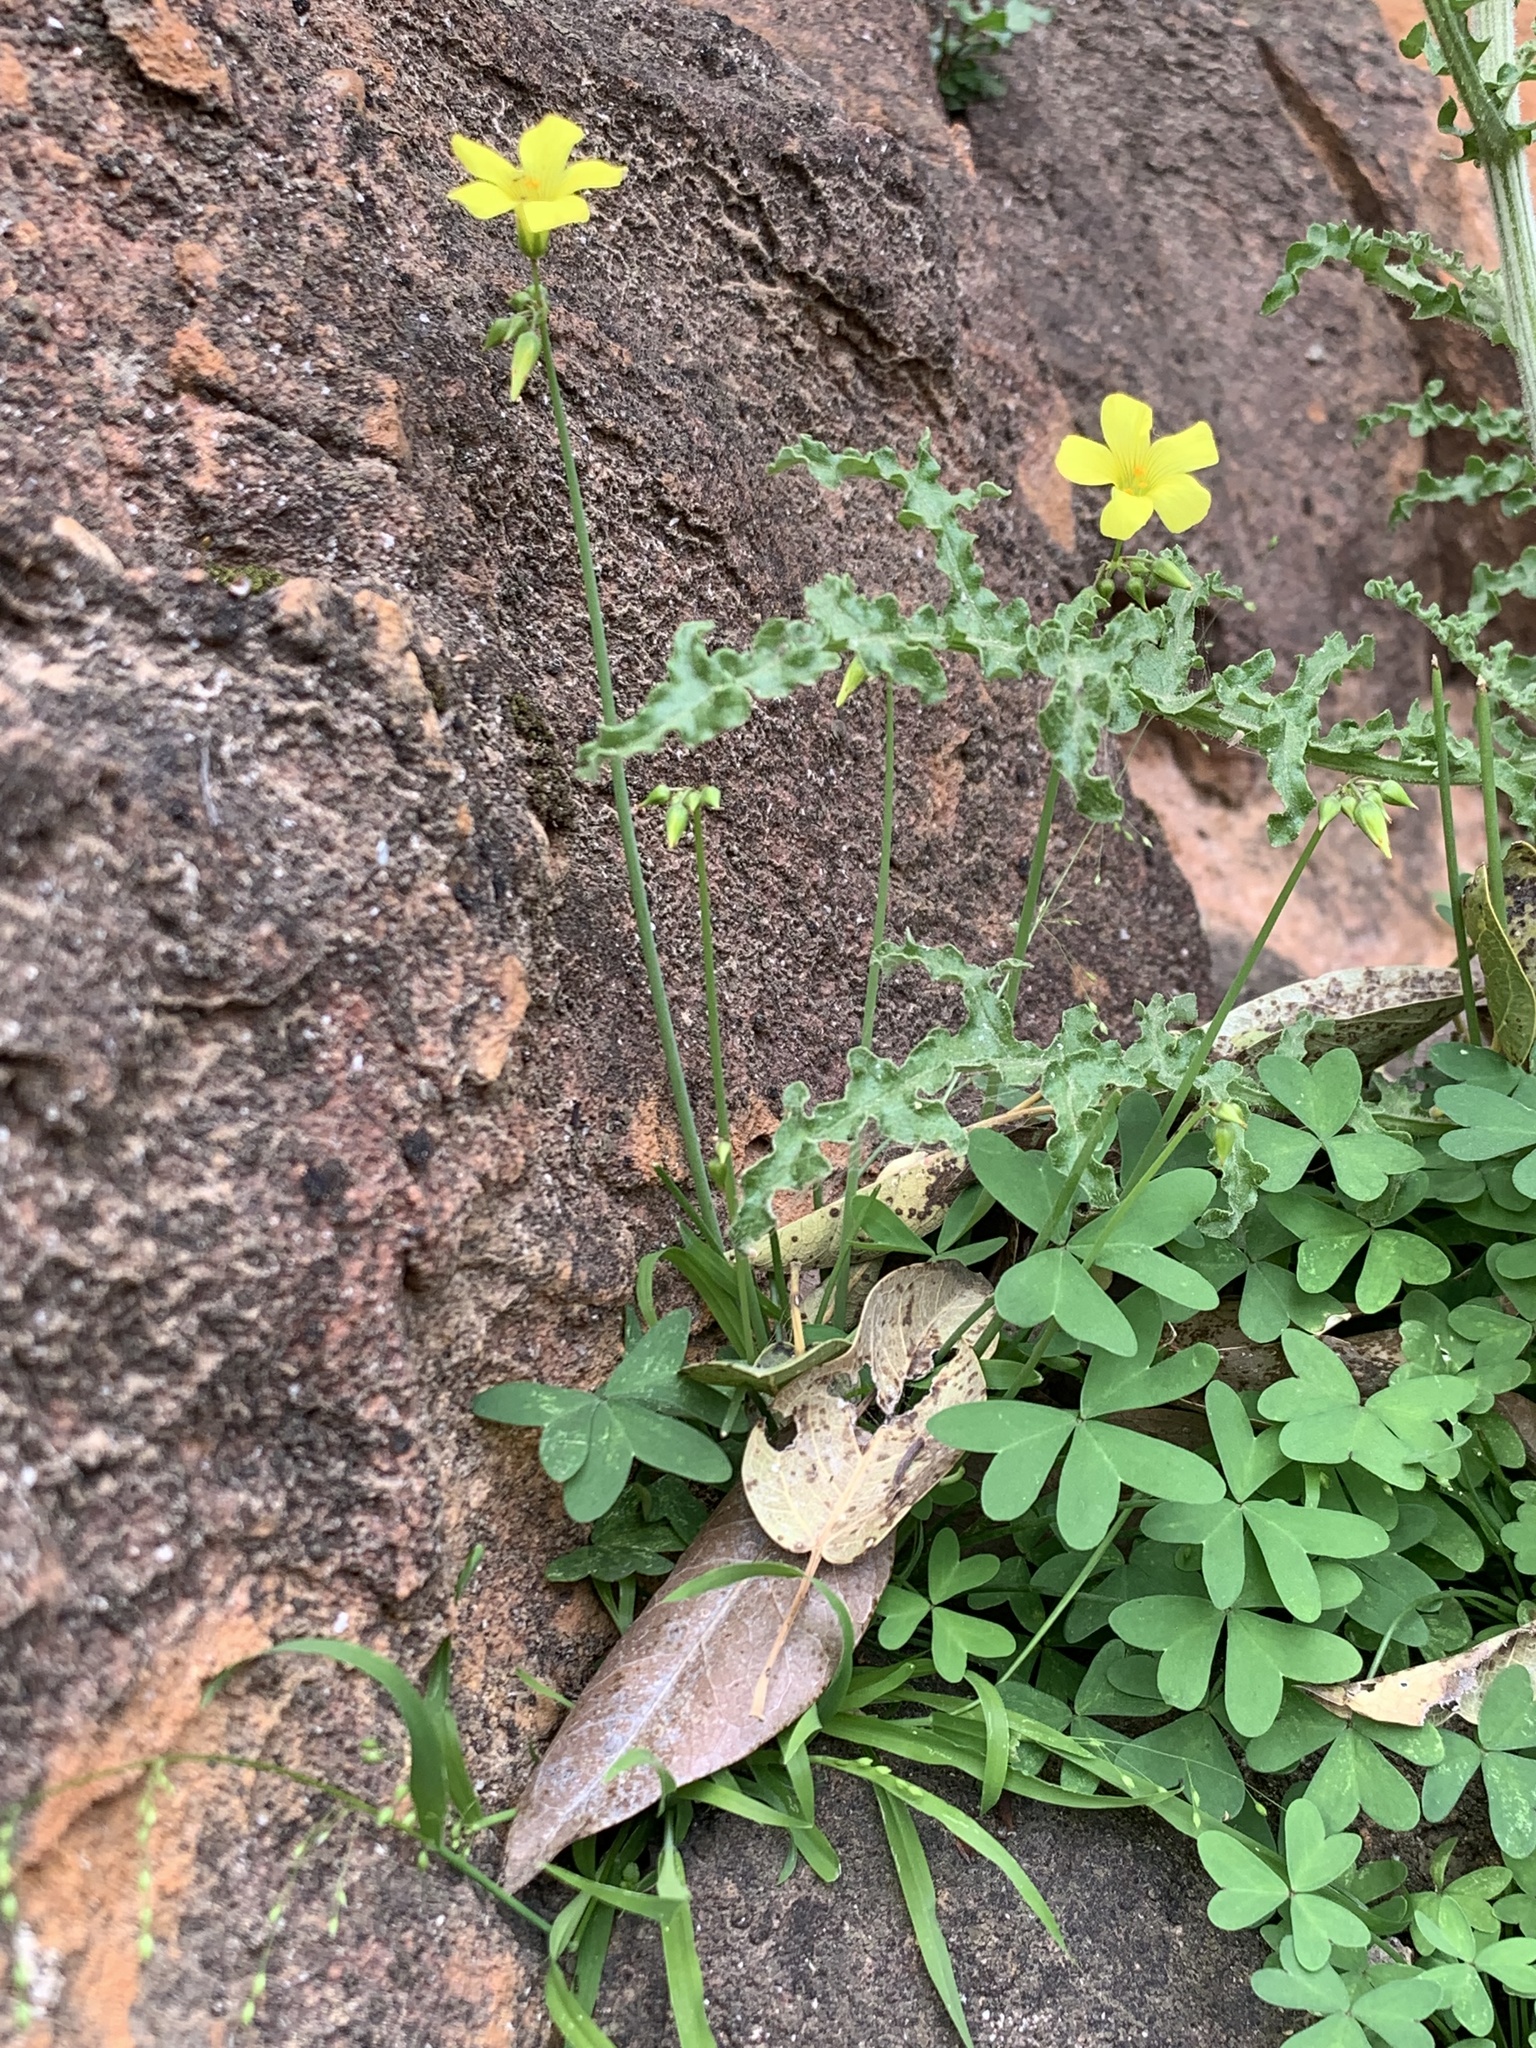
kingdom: Plantae
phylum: Tracheophyta
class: Magnoliopsida
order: Oxalidales
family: Oxalidaceae
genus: Oxalis
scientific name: Oxalis pes-caprae
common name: Bermuda-buttercup
